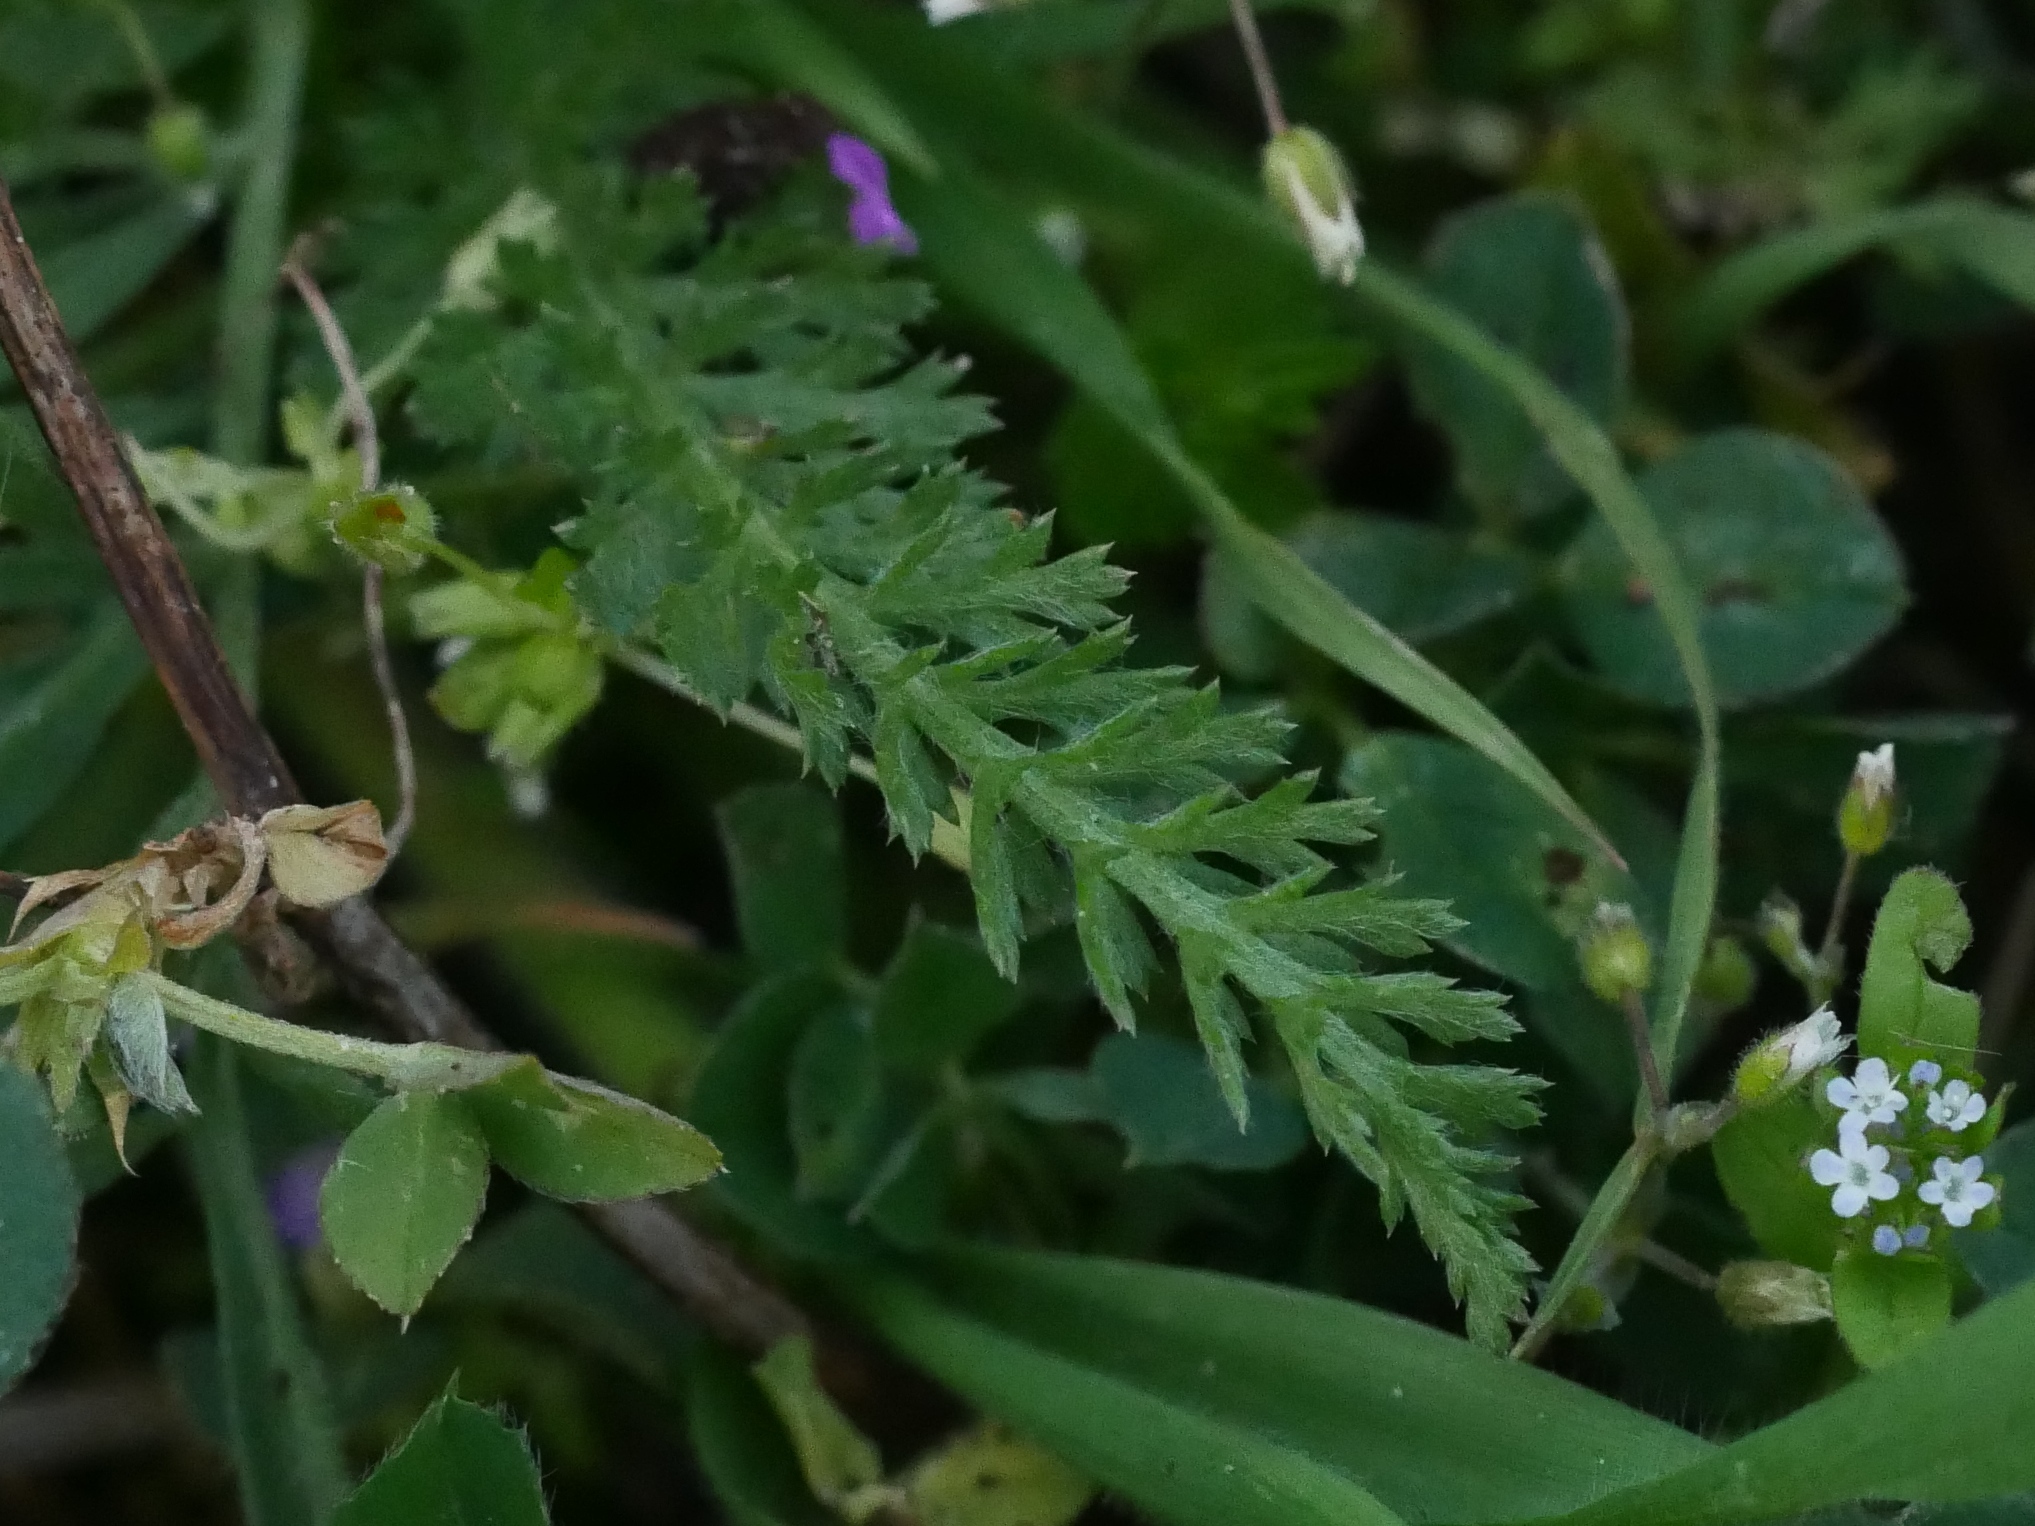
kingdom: Plantae
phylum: Tracheophyta
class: Magnoliopsida
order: Asterales
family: Asteraceae
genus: Achillea
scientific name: Achillea millefolium
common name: Yarrow
